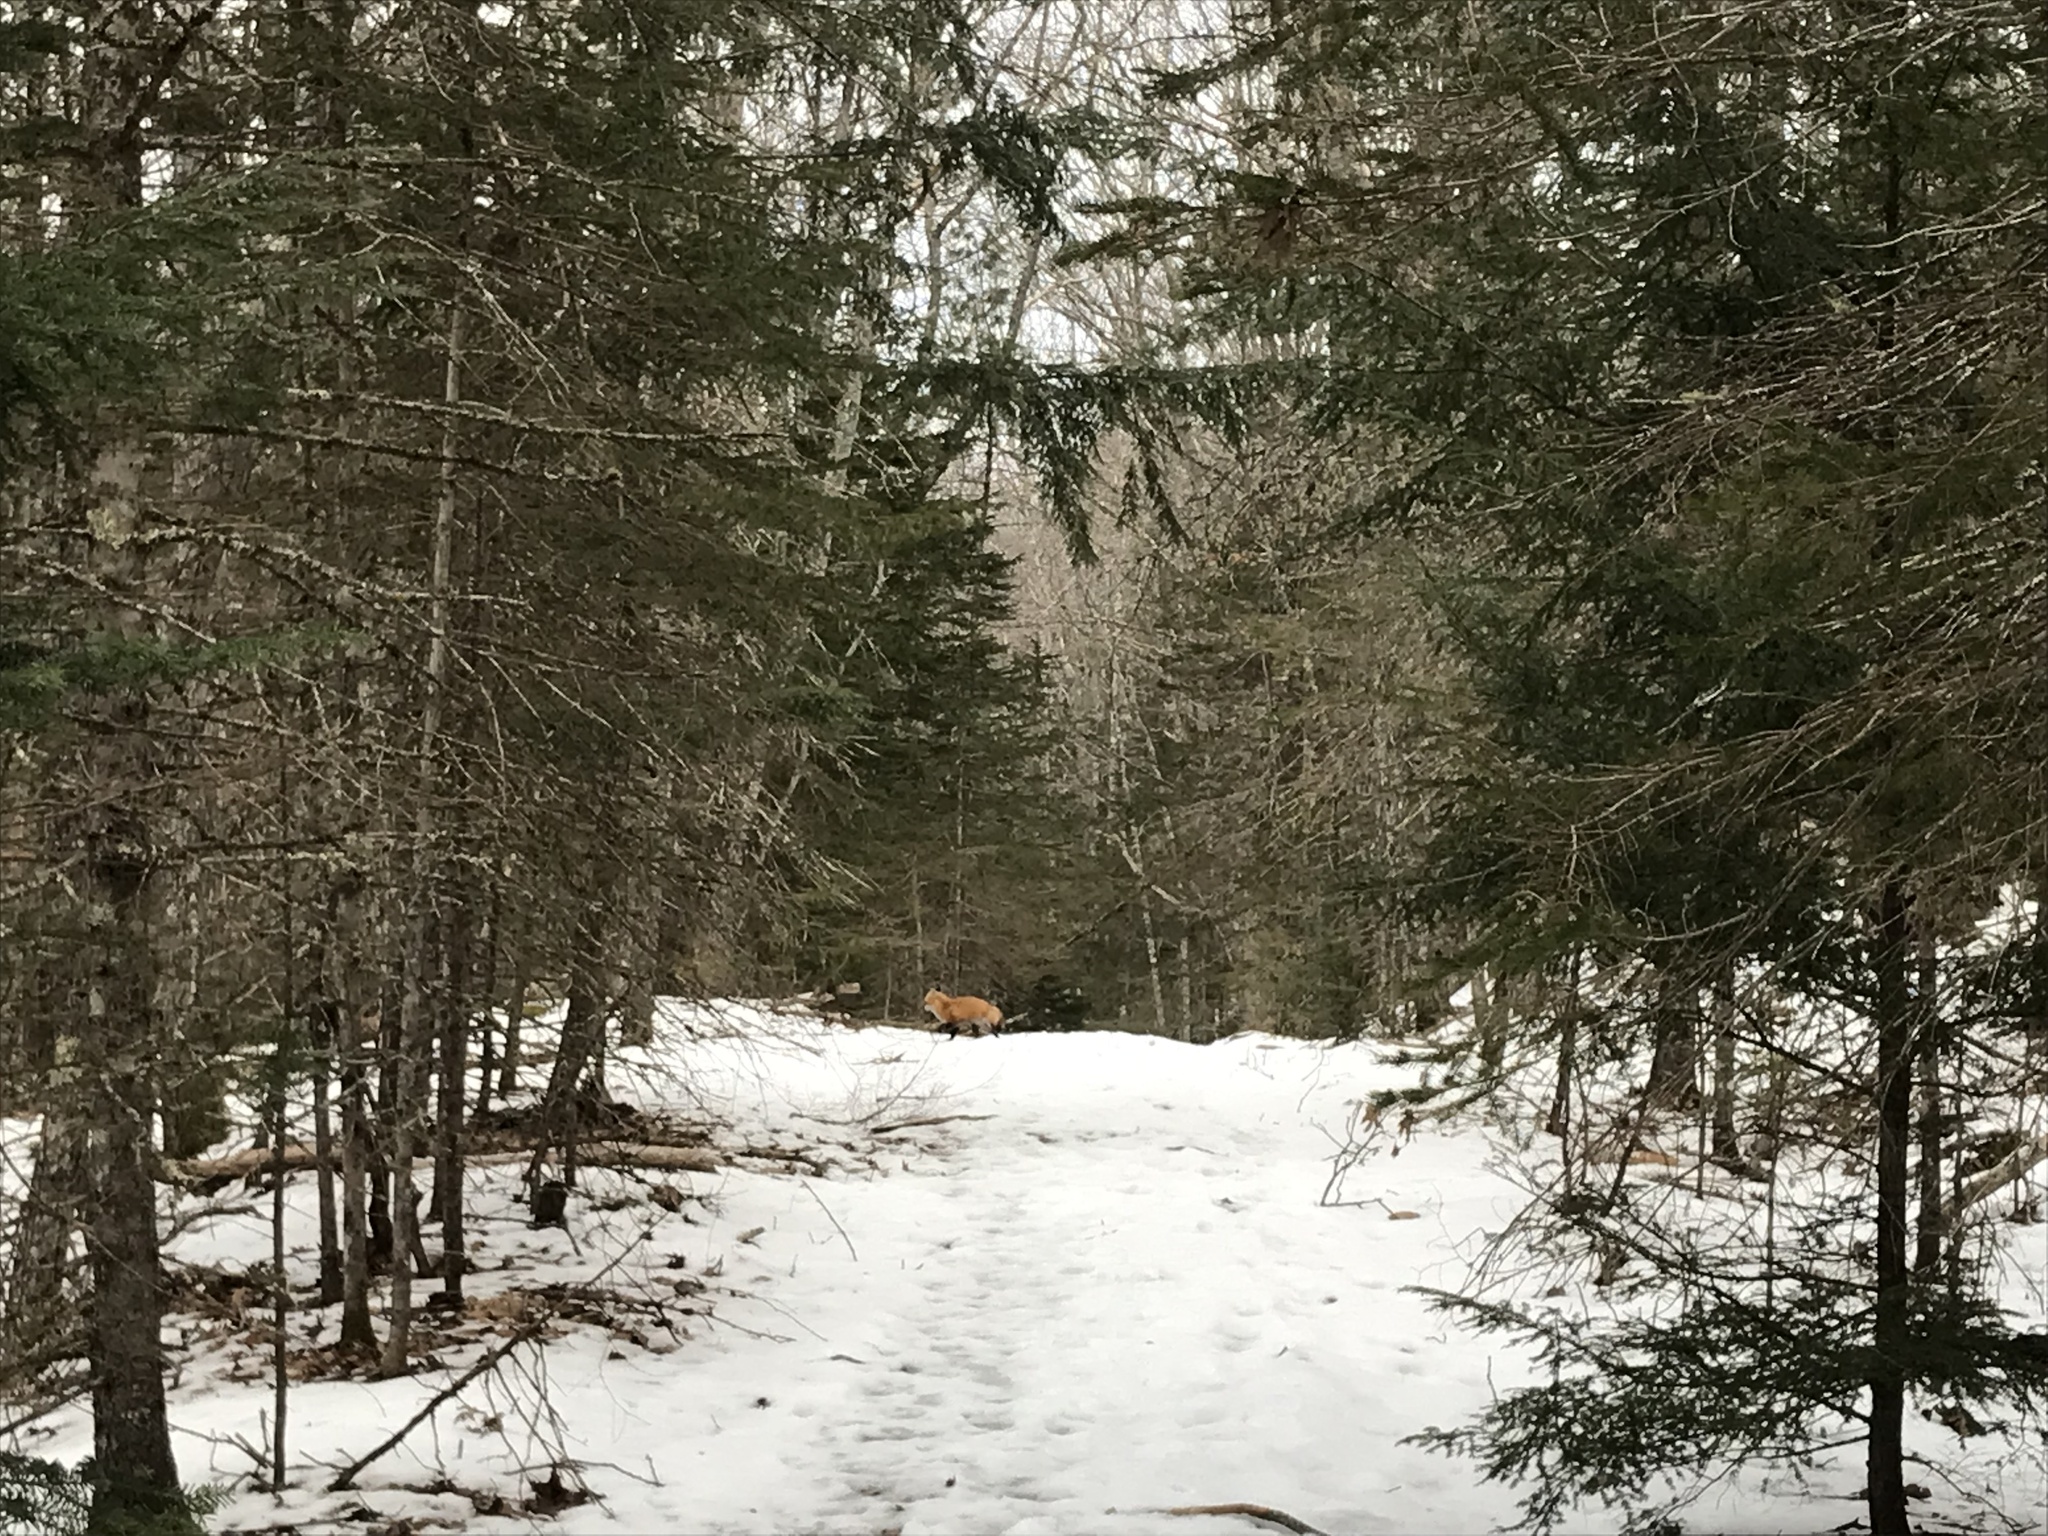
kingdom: Animalia
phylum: Chordata
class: Mammalia
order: Carnivora
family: Canidae
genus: Vulpes
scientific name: Vulpes vulpes
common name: Red fox
